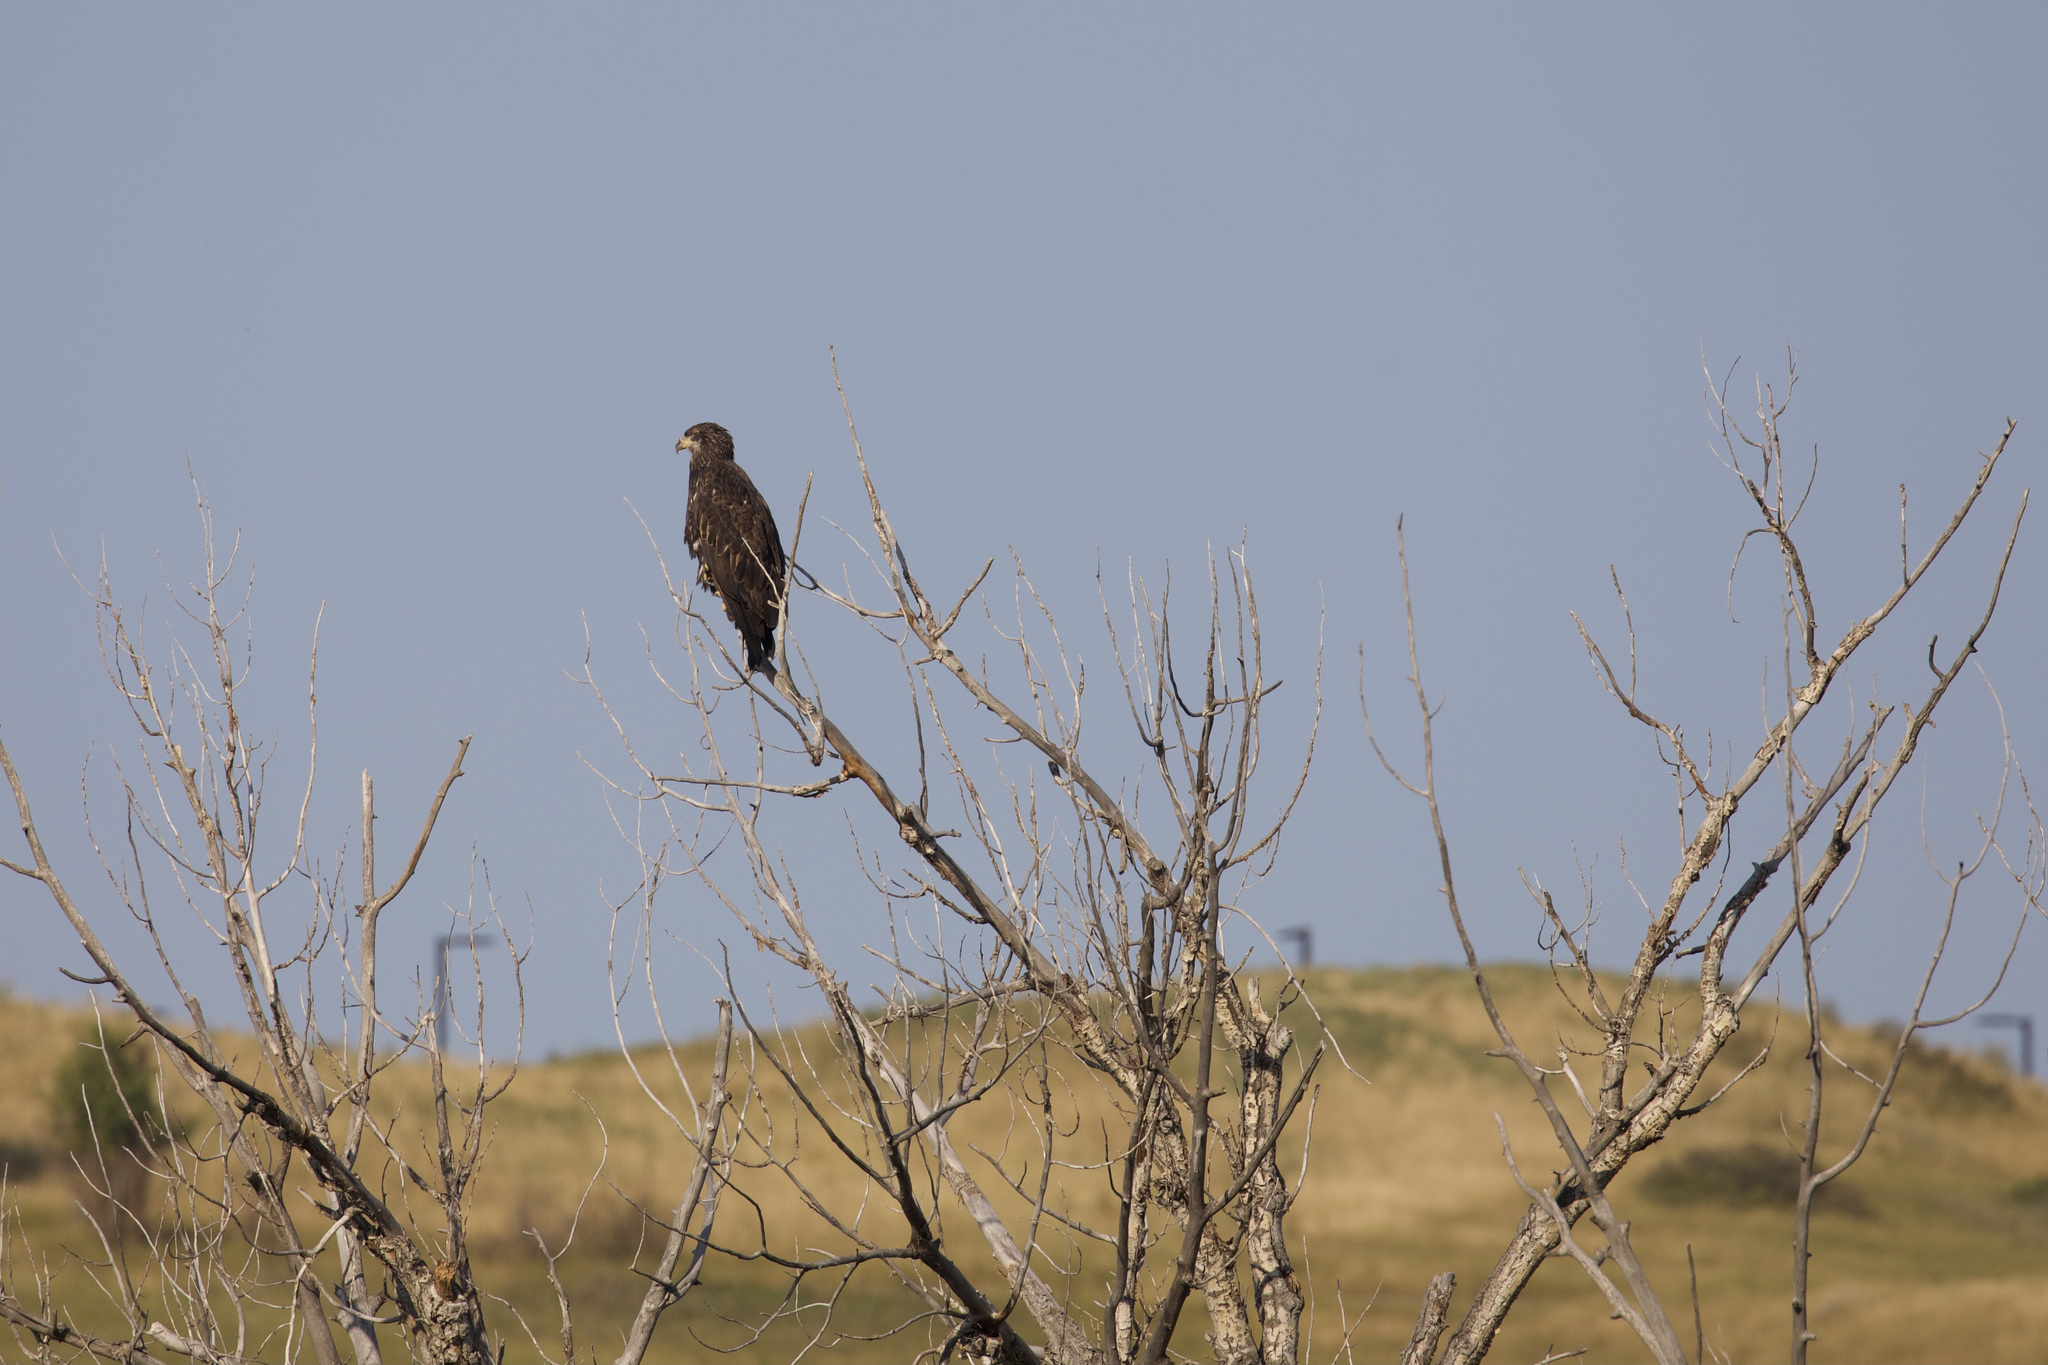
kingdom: Animalia
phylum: Chordata
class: Aves
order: Accipitriformes
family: Accipitridae
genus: Haliaeetus
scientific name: Haliaeetus leucocephalus
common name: Bald eagle
